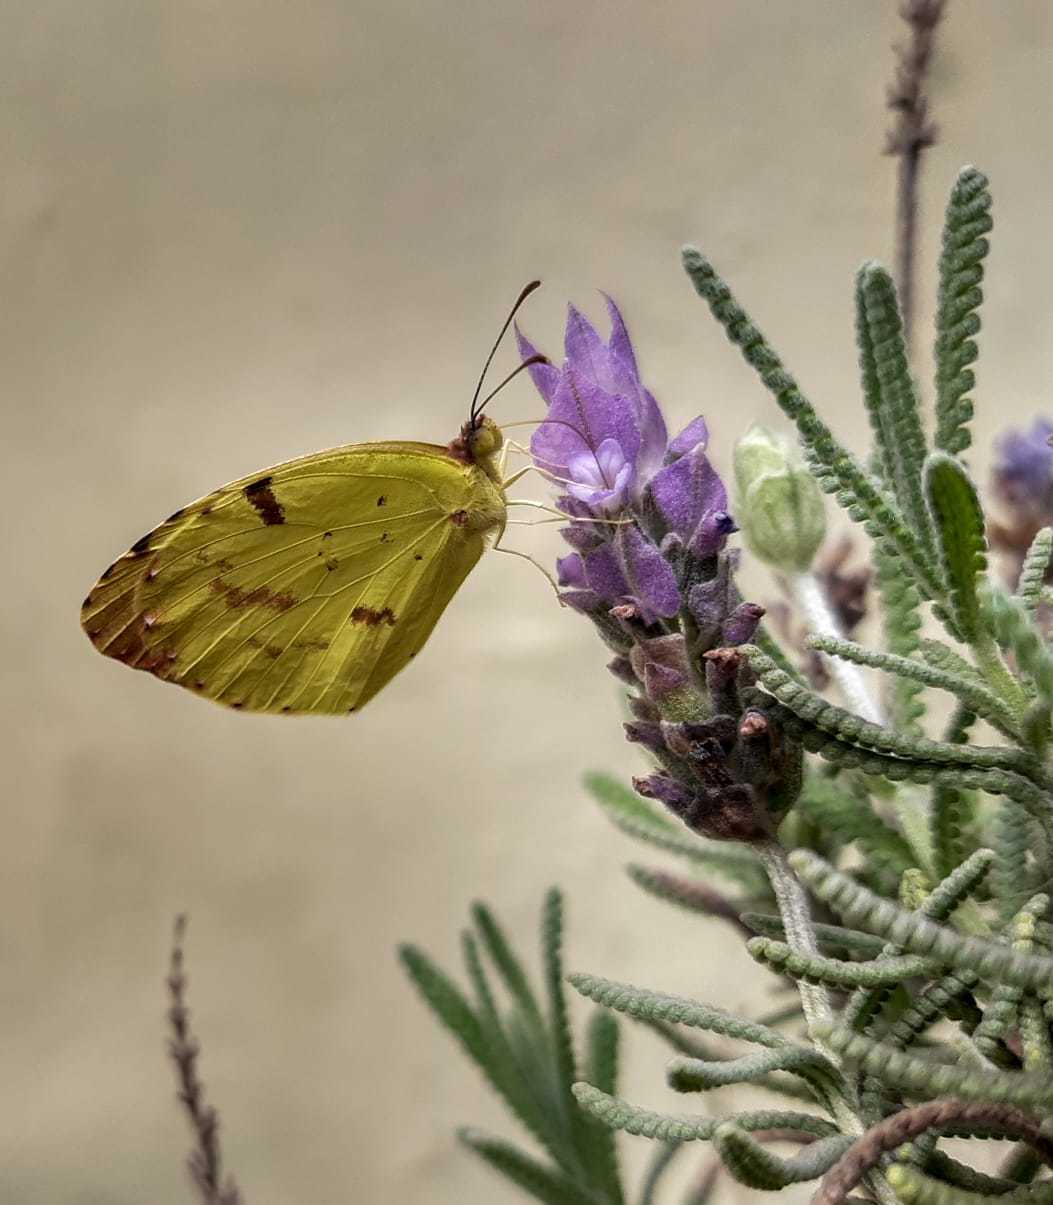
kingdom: Animalia
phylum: Arthropoda
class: Insecta
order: Lepidoptera
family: Pieridae
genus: Teriocolias
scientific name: Teriocolias
